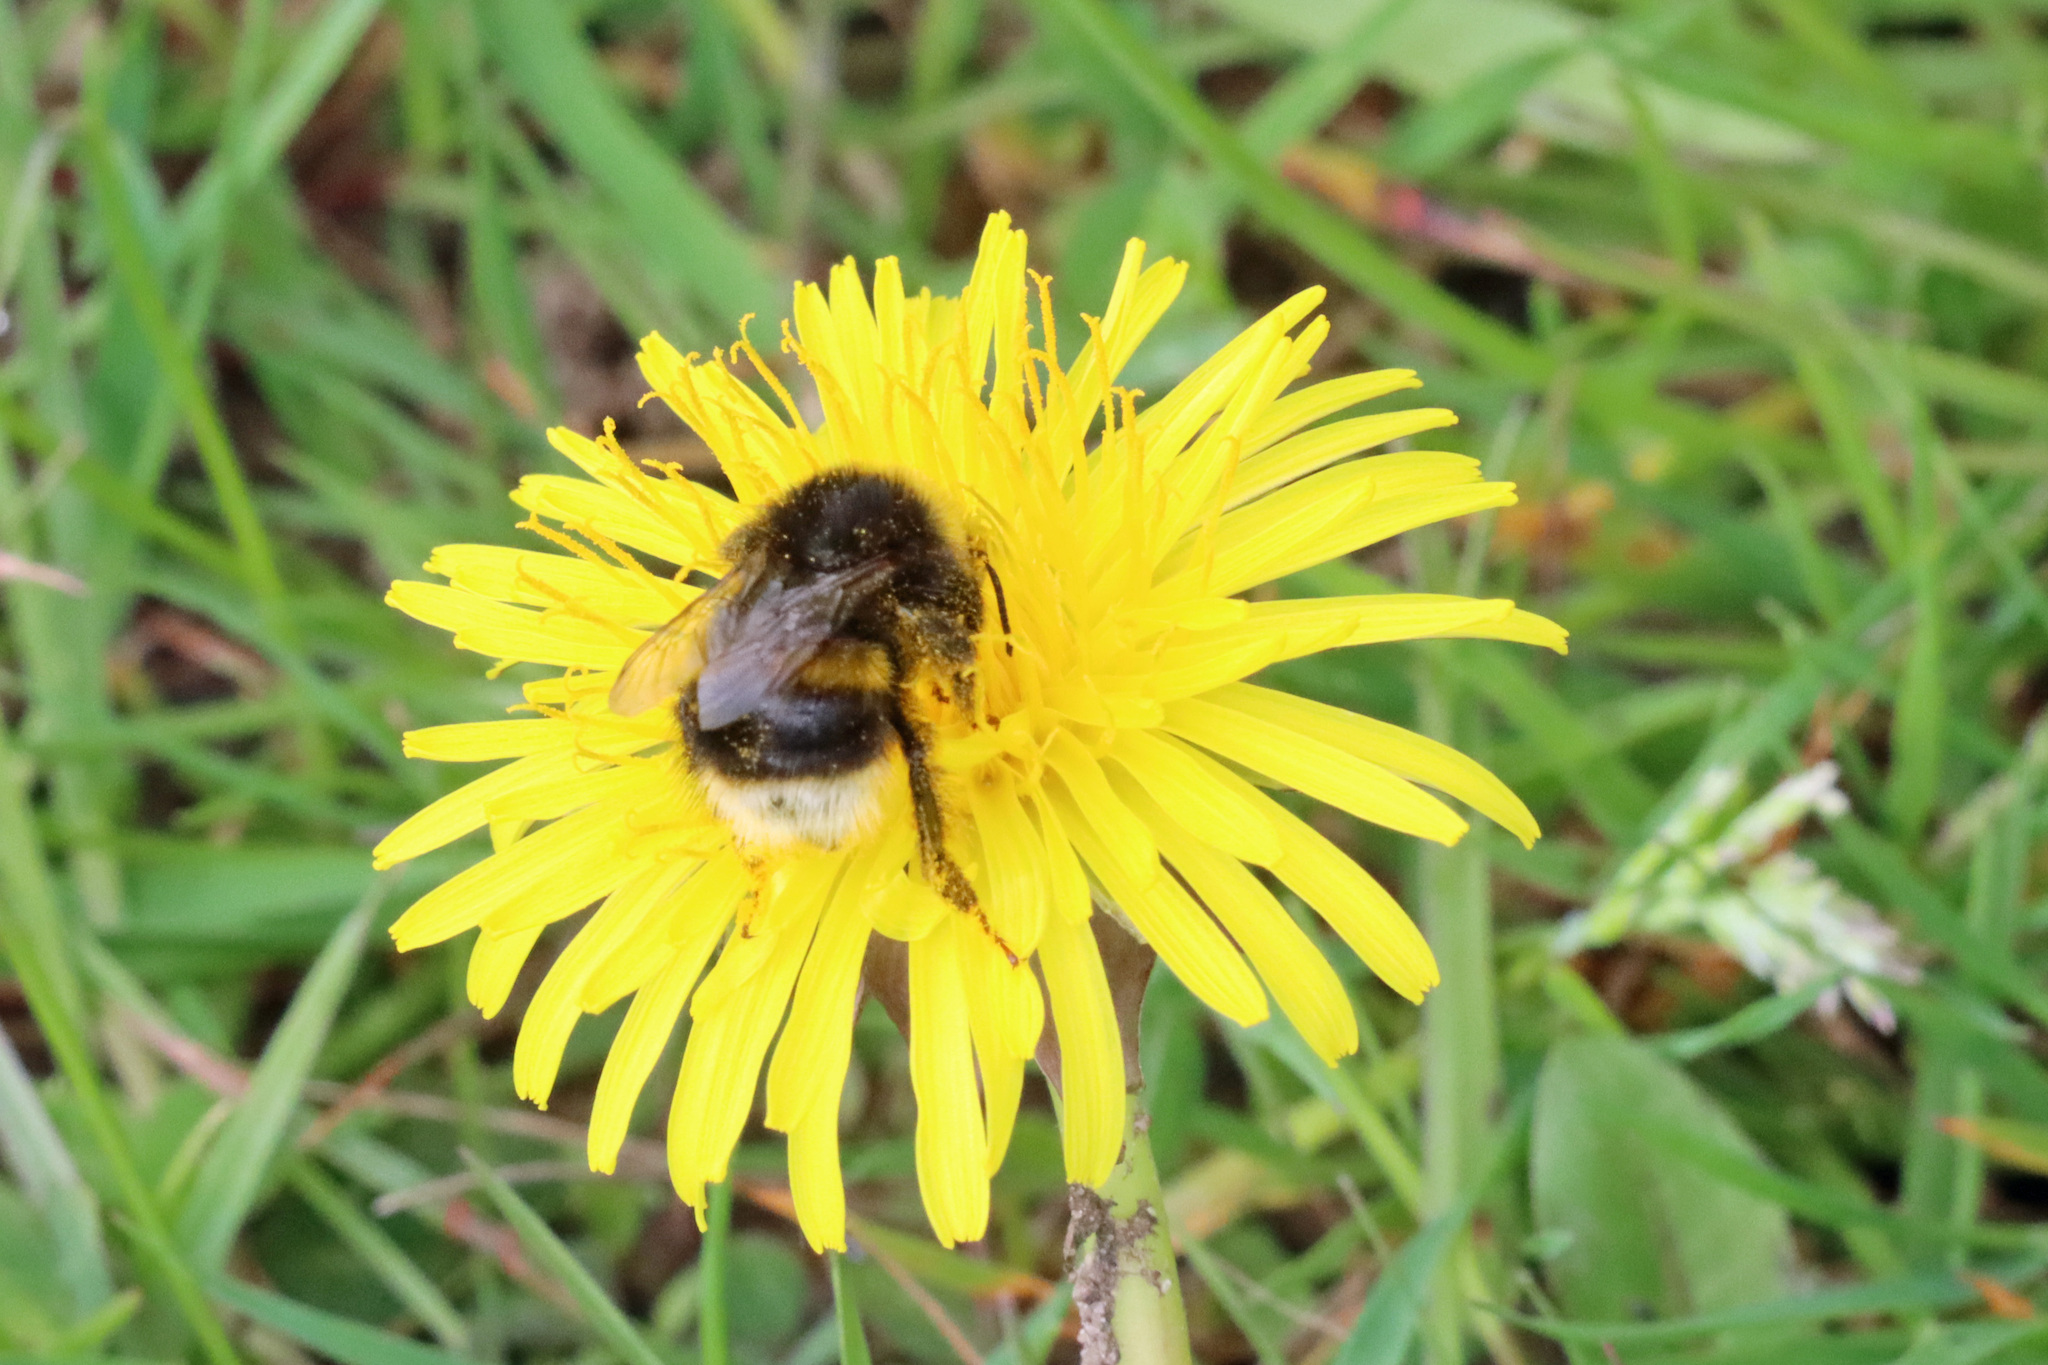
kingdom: Animalia
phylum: Arthropoda
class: Insecta
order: Hymenoptera
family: Apidae
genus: Bombus
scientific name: Bombus terrestris
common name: Buff-tailed bumblebee
